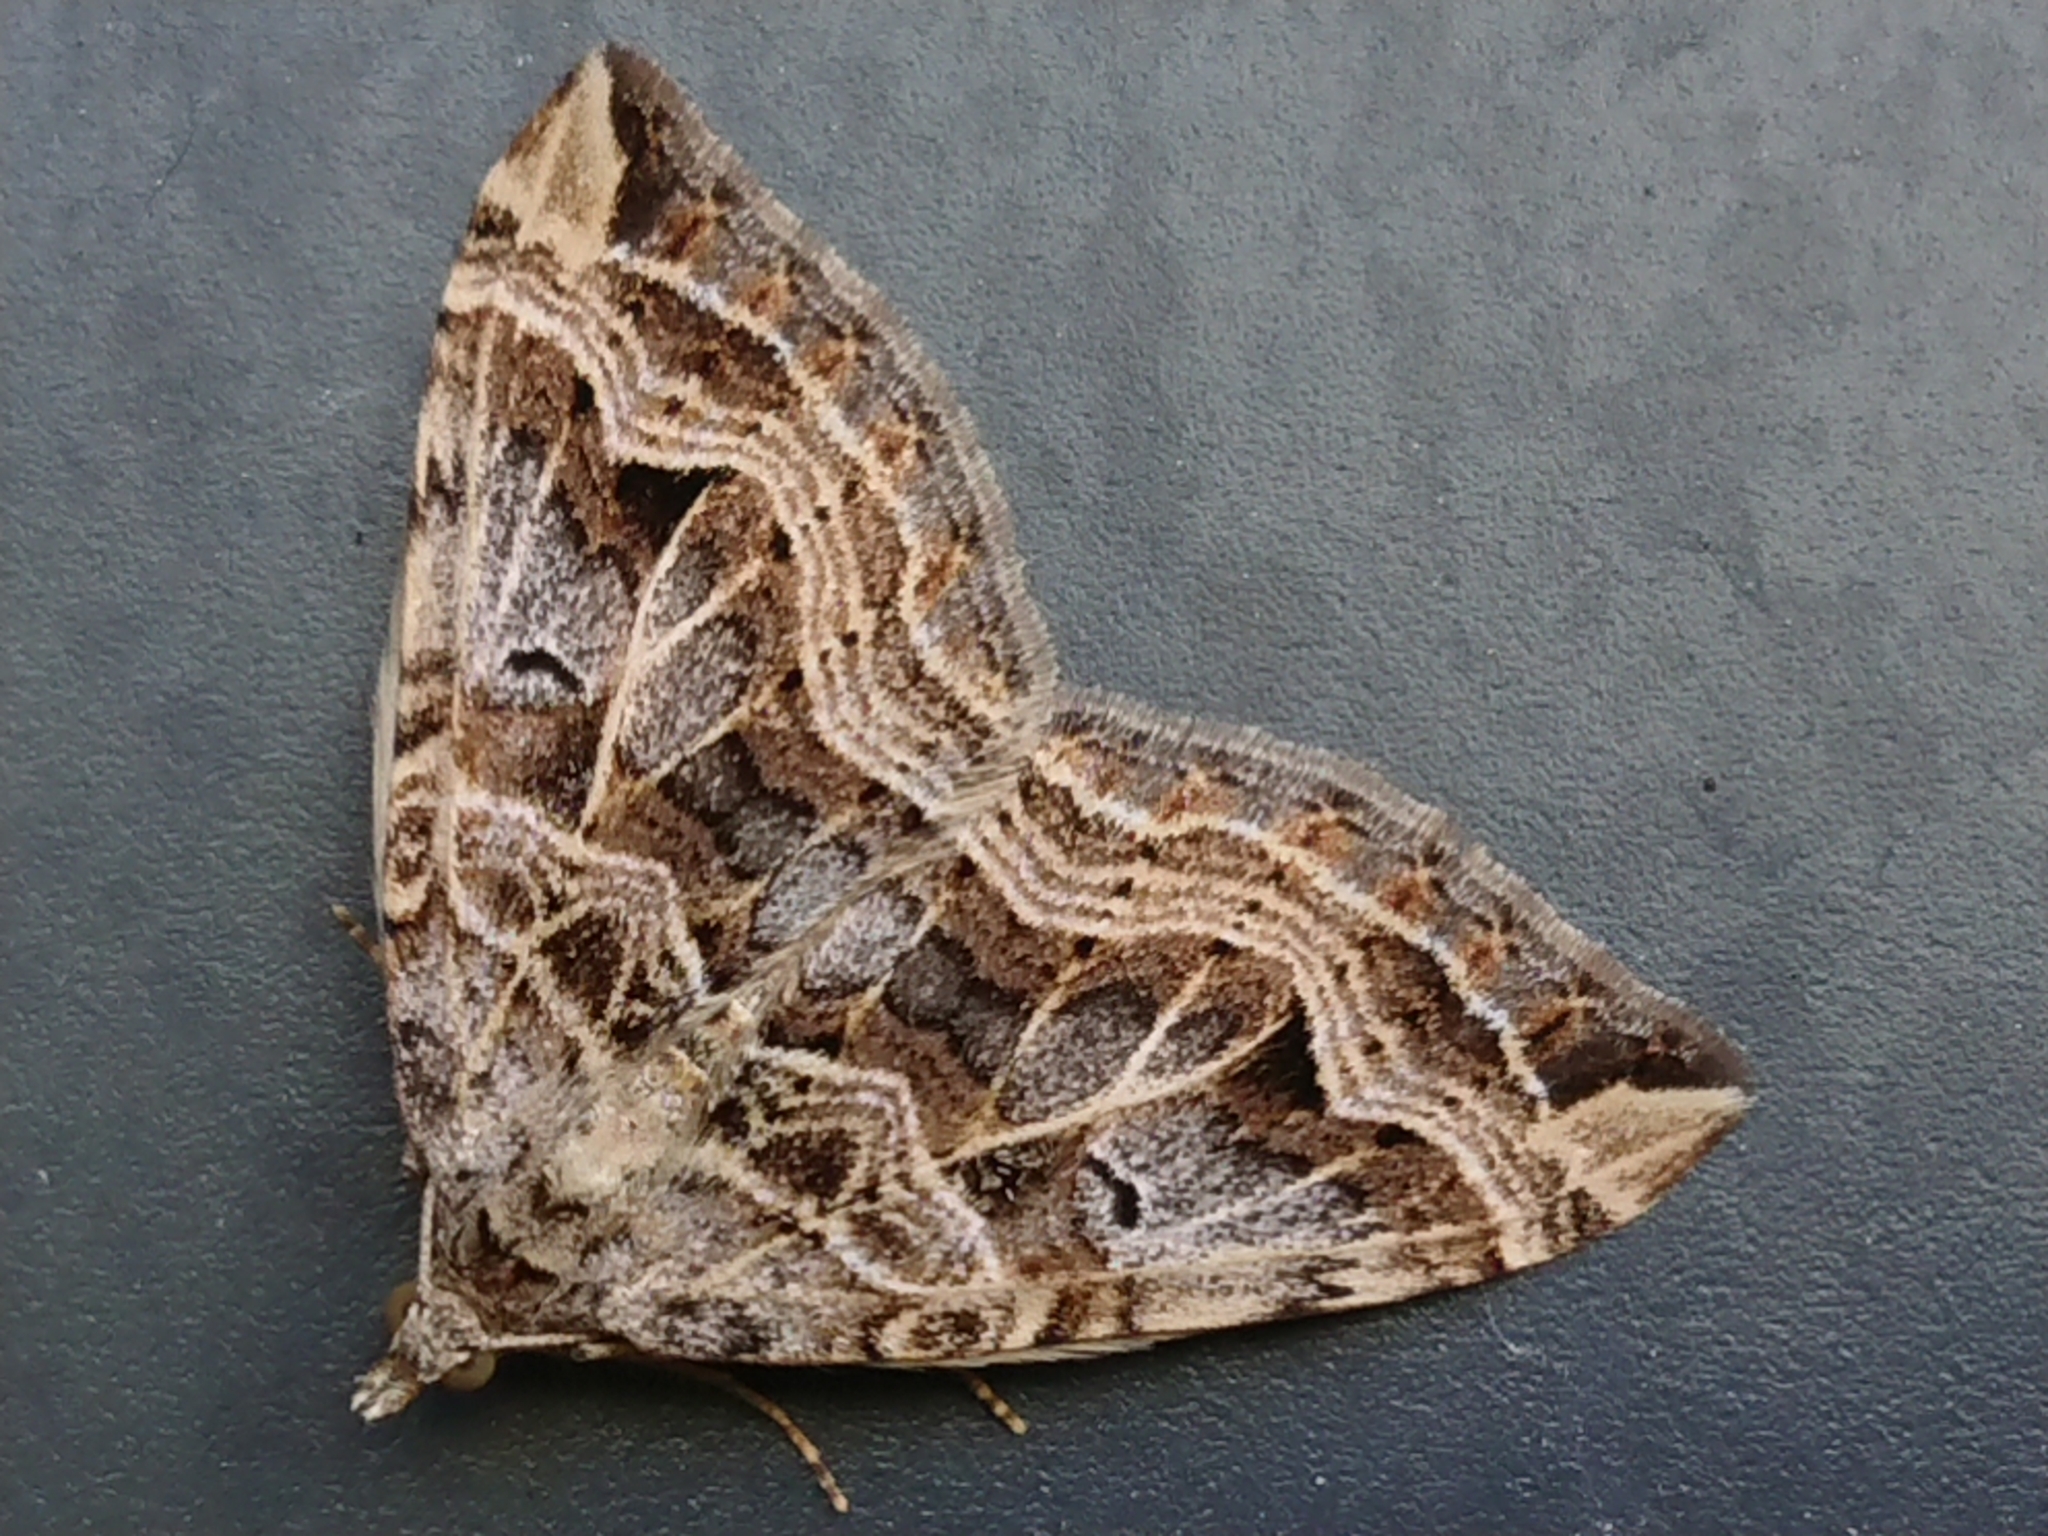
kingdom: Animalia
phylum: Arthropoda
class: Insecta
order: Lepidoptera
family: Geometridae
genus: Xanthorhoe
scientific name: Xanthorhoe semifissata
